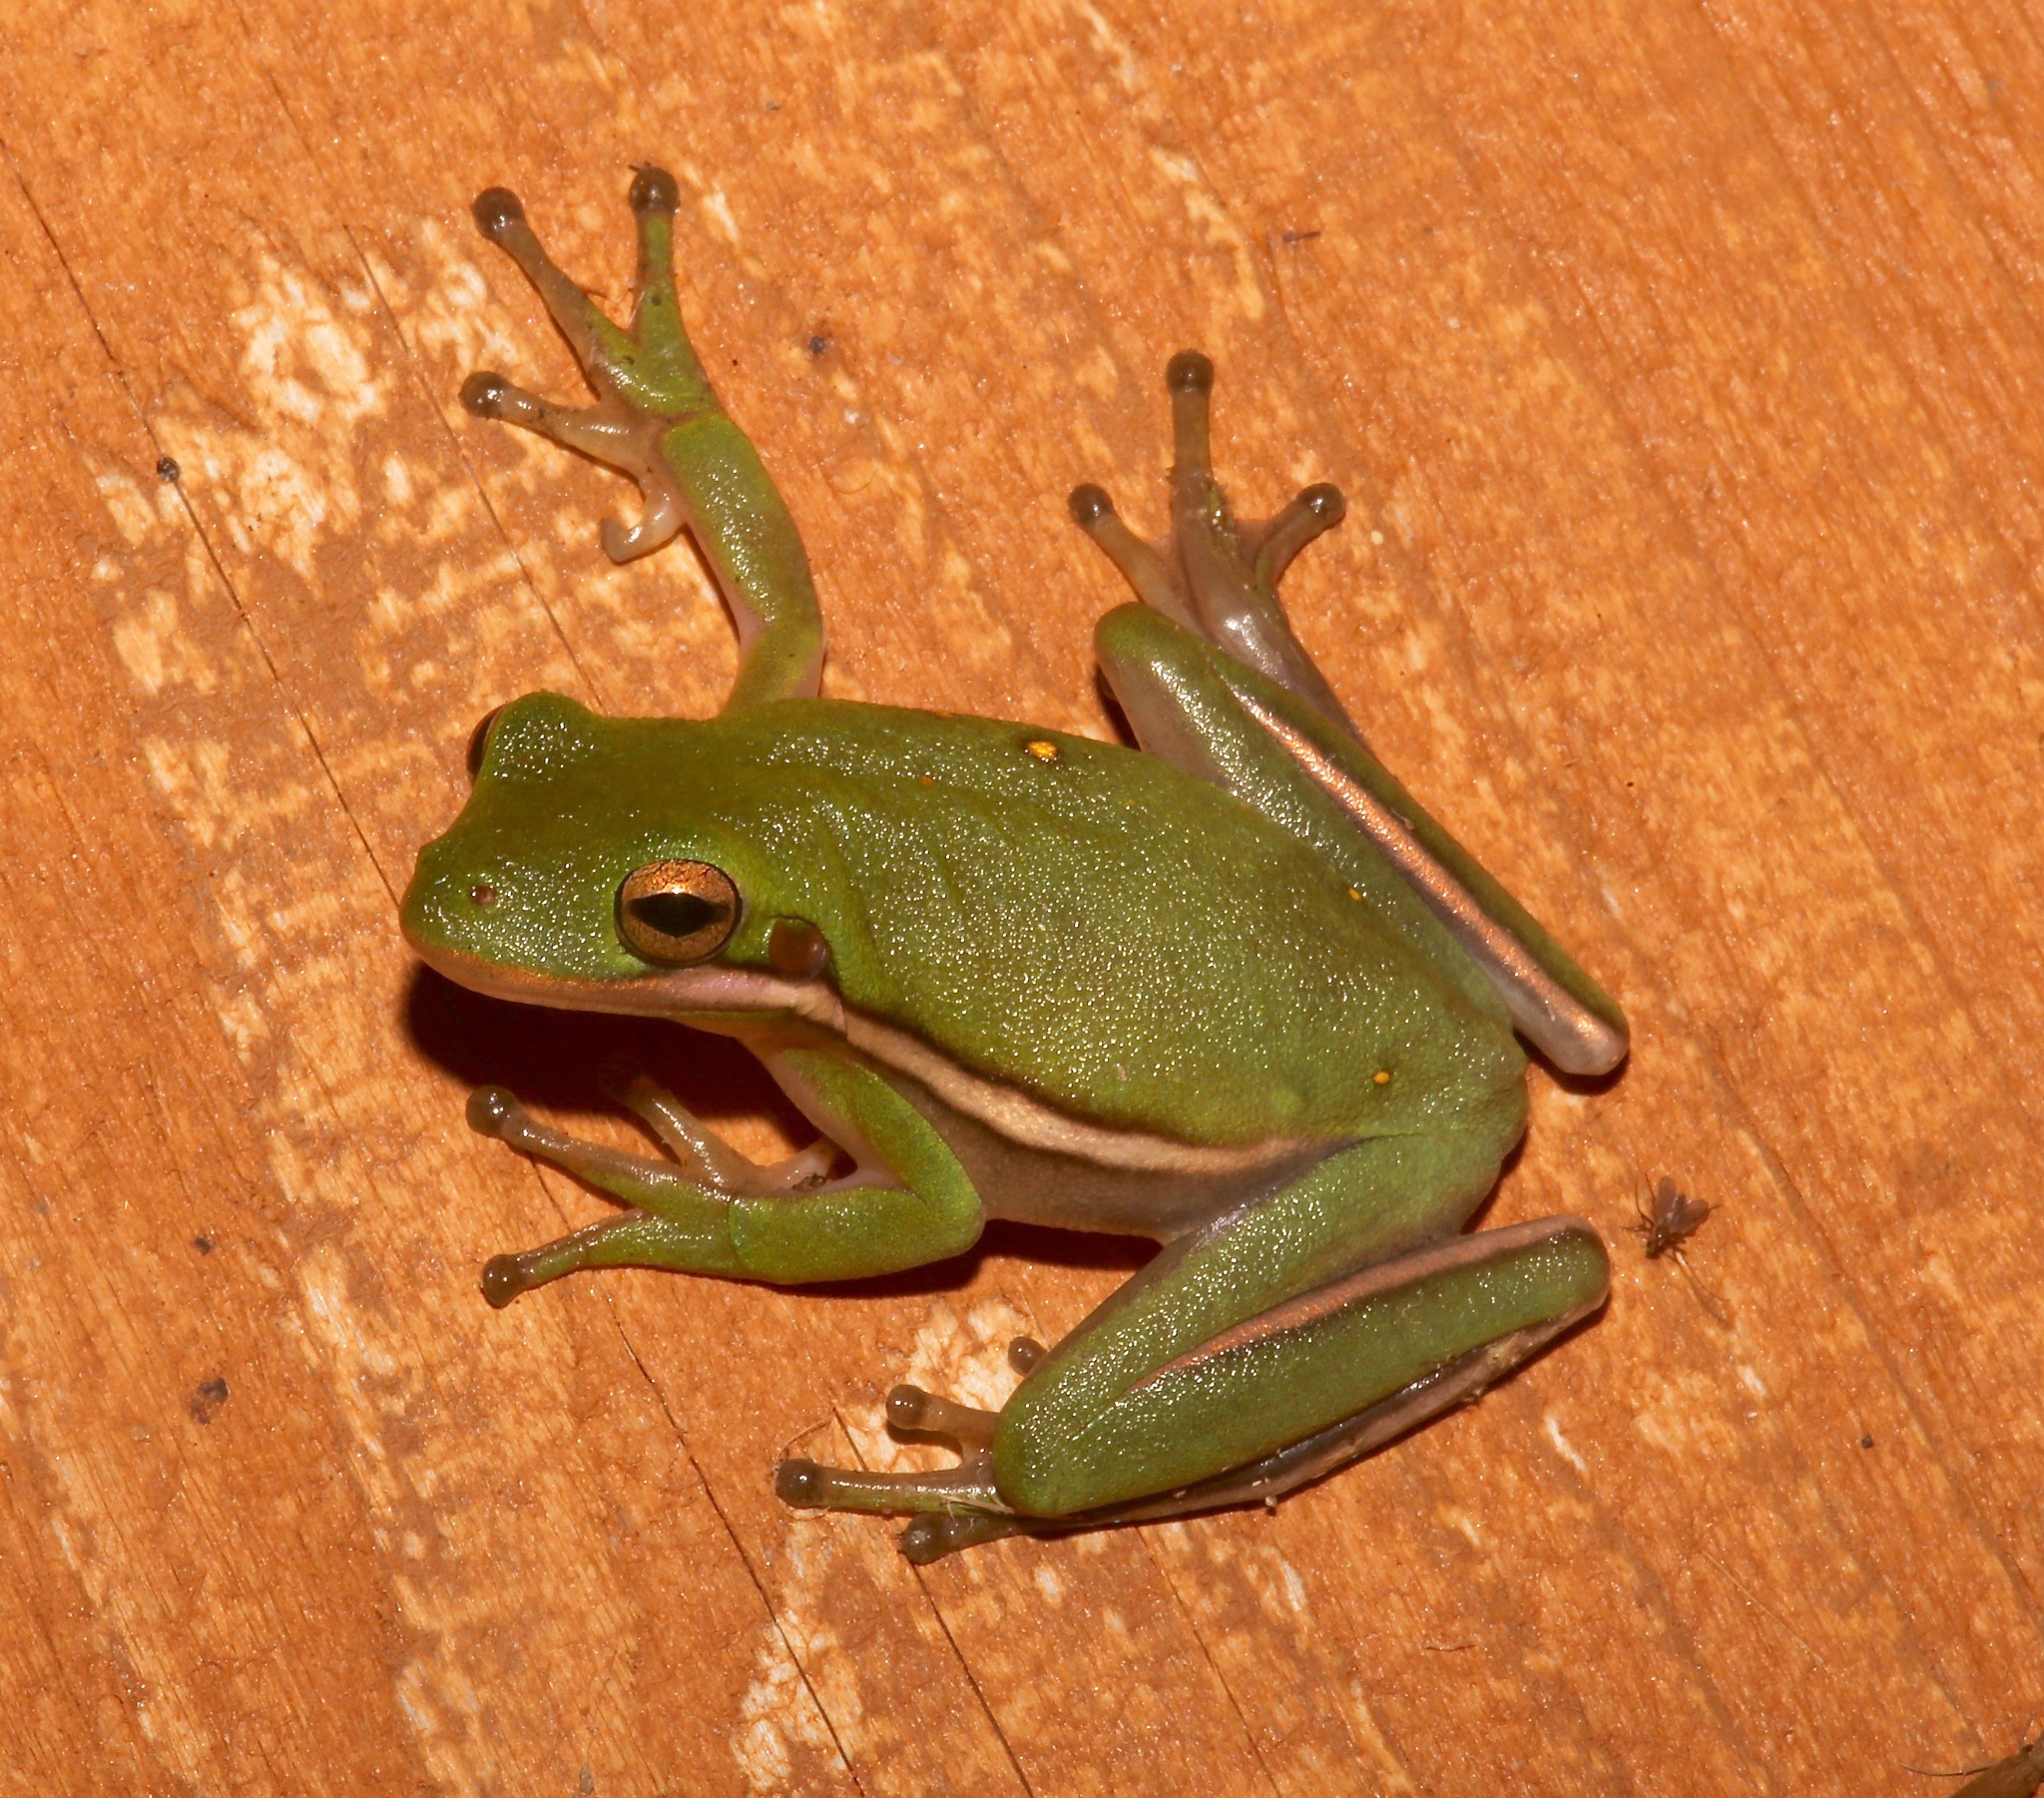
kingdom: Animalia
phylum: Chordata
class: Amphibia
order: Anura
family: Hylidae
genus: Dryophytes
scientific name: Dryophytes cinereus
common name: Green treefrog
